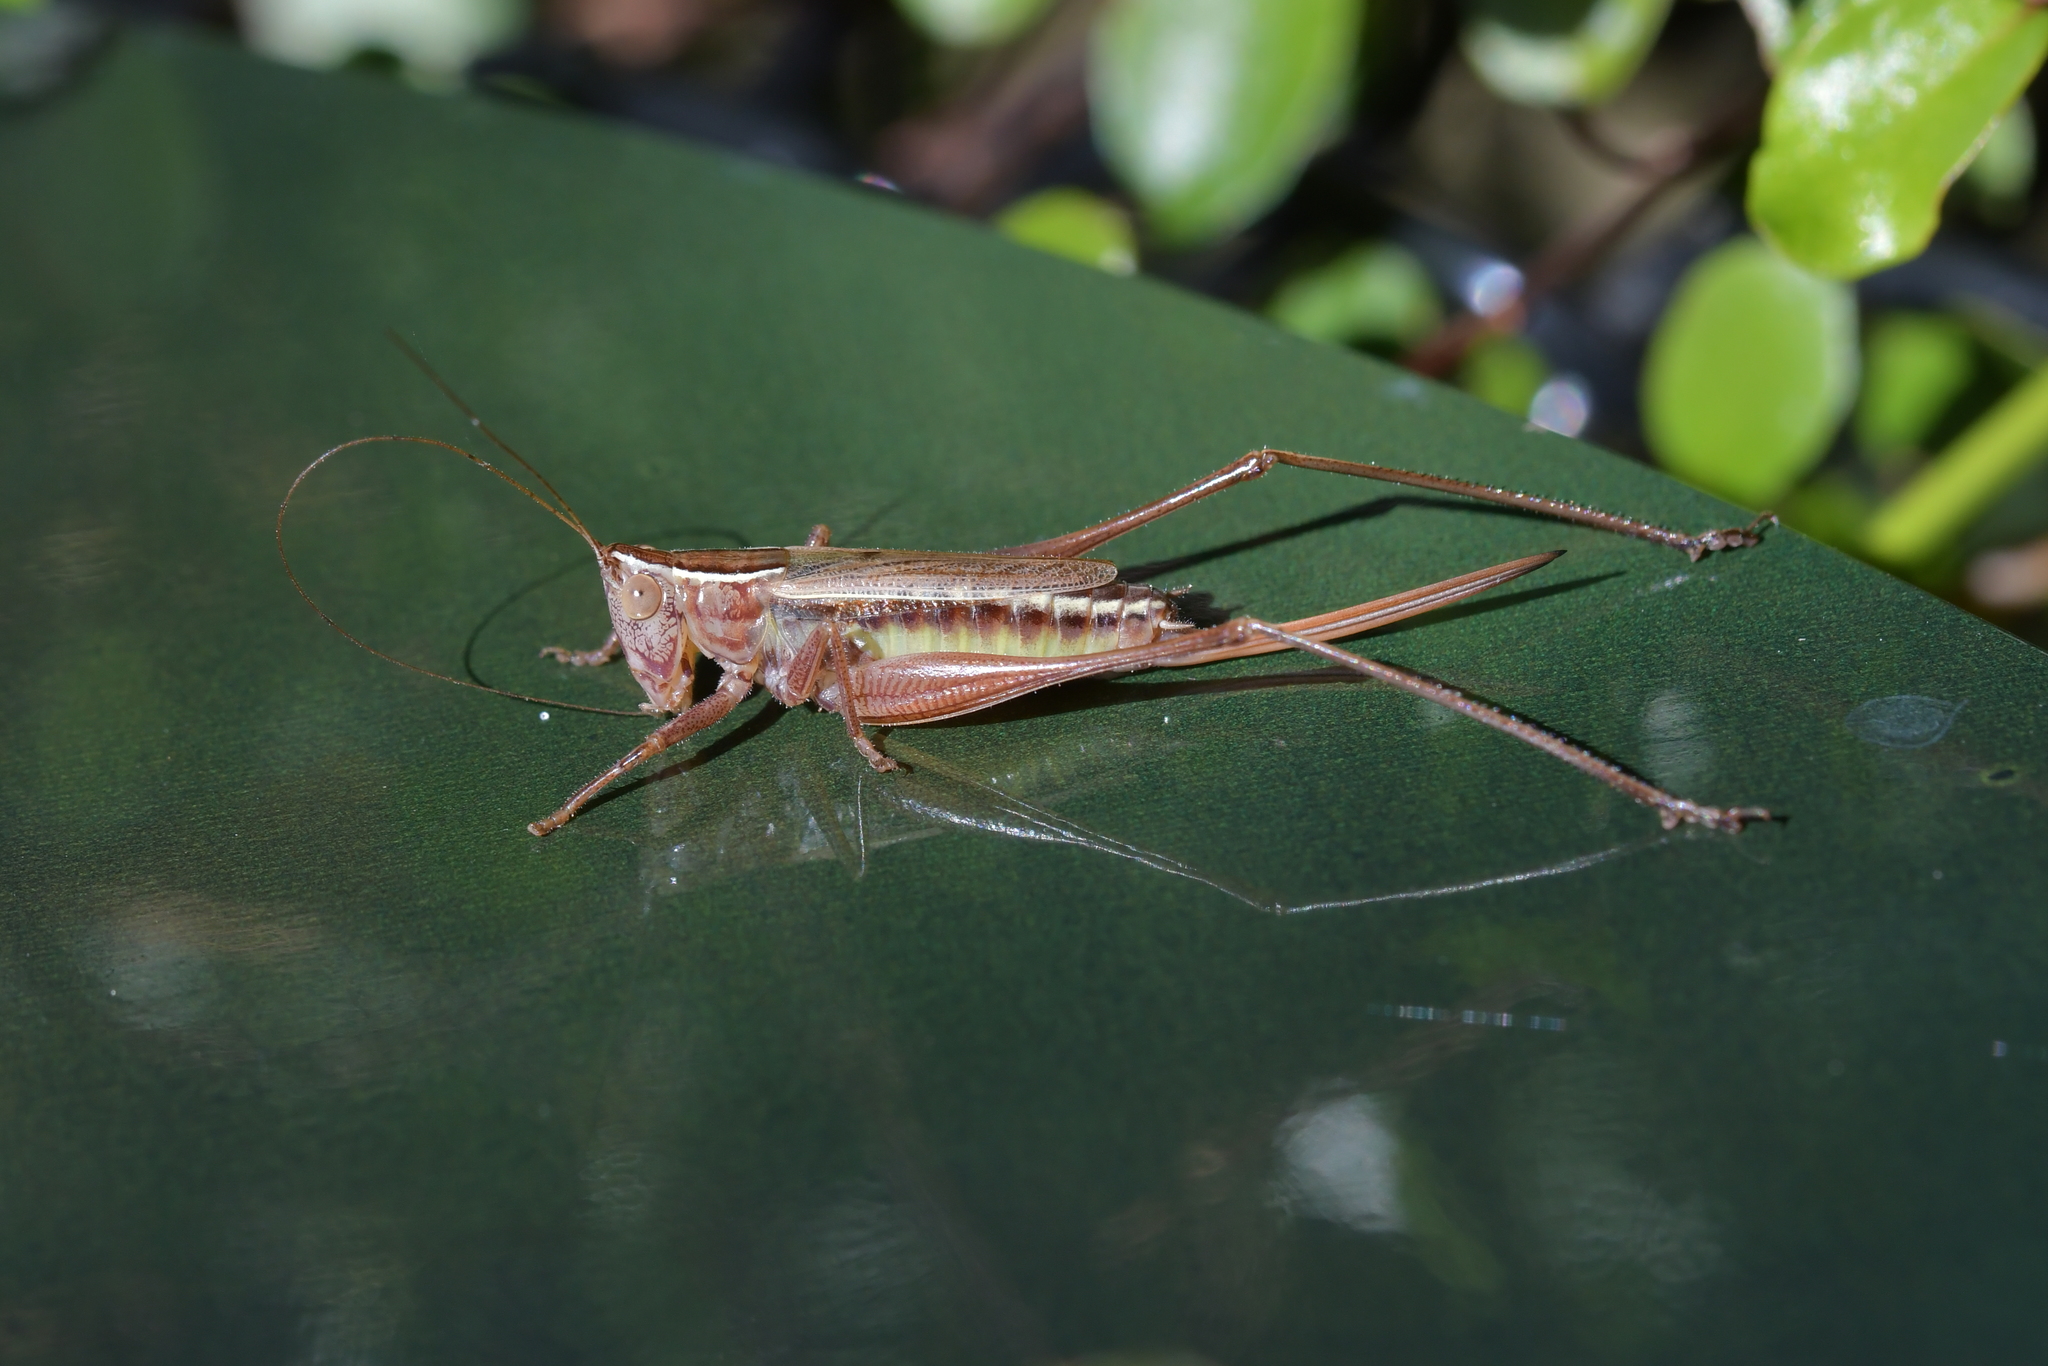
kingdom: Animalia
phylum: Arthropoda
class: Insecta
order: Orthoptera
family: Tettigoniidae
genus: Conocephalus
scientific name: Conocephalus albescens
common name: Whitish meadow katydid
